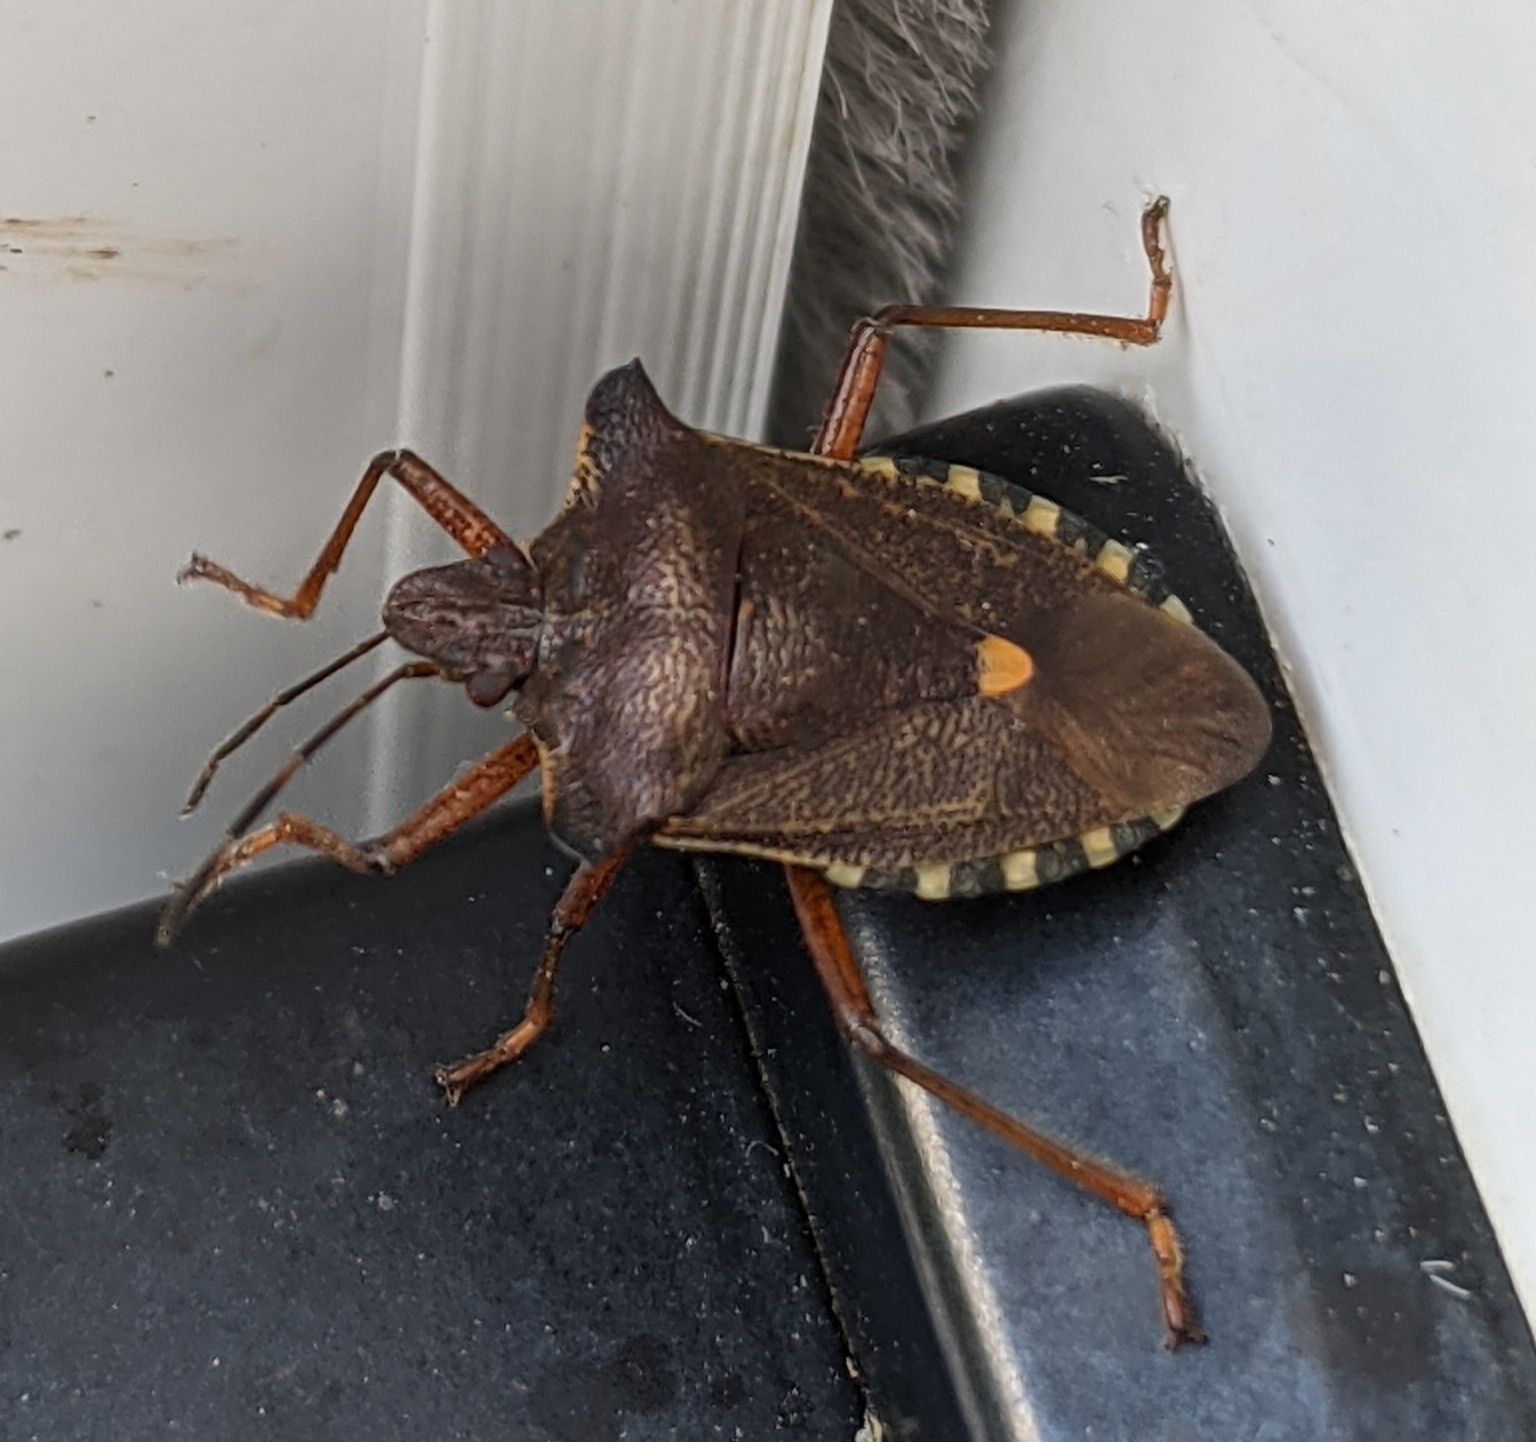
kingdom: Animalia
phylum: Arthropoda
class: Insecta
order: Hemiptera
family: Pentatomidae
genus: Pentatoma
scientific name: Pentatoma rufipes
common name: Forest bug
